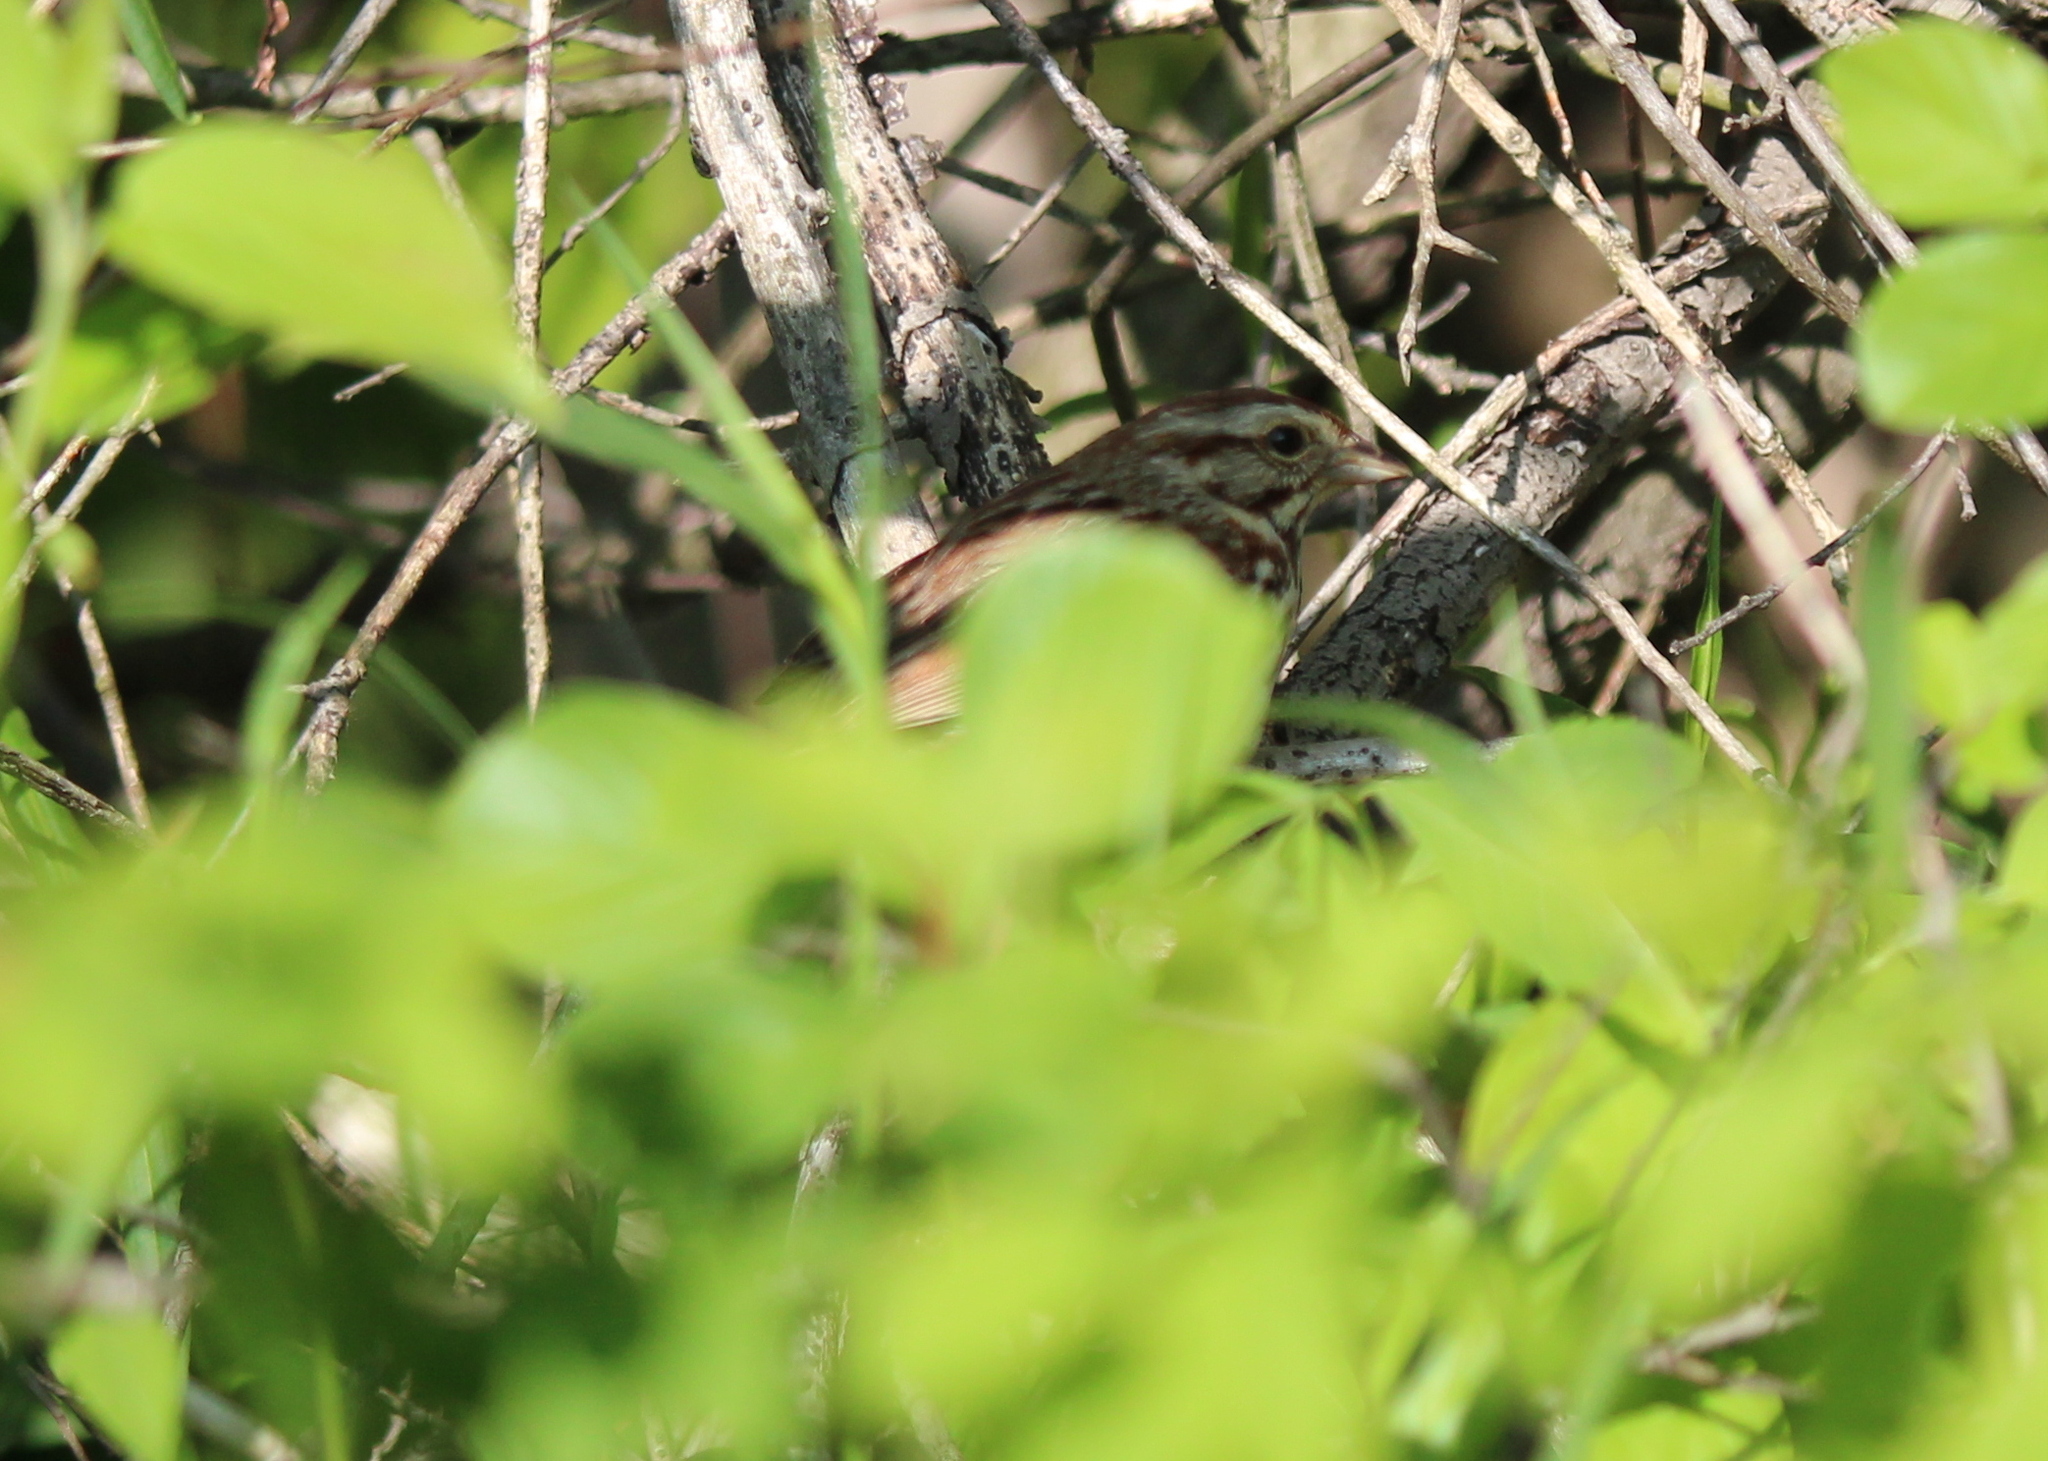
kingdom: Animalia
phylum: Chordata
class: Aves
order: Passeriformes
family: Passerellidae
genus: Melospiza
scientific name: Melospiza melodia
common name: Song sparrow
